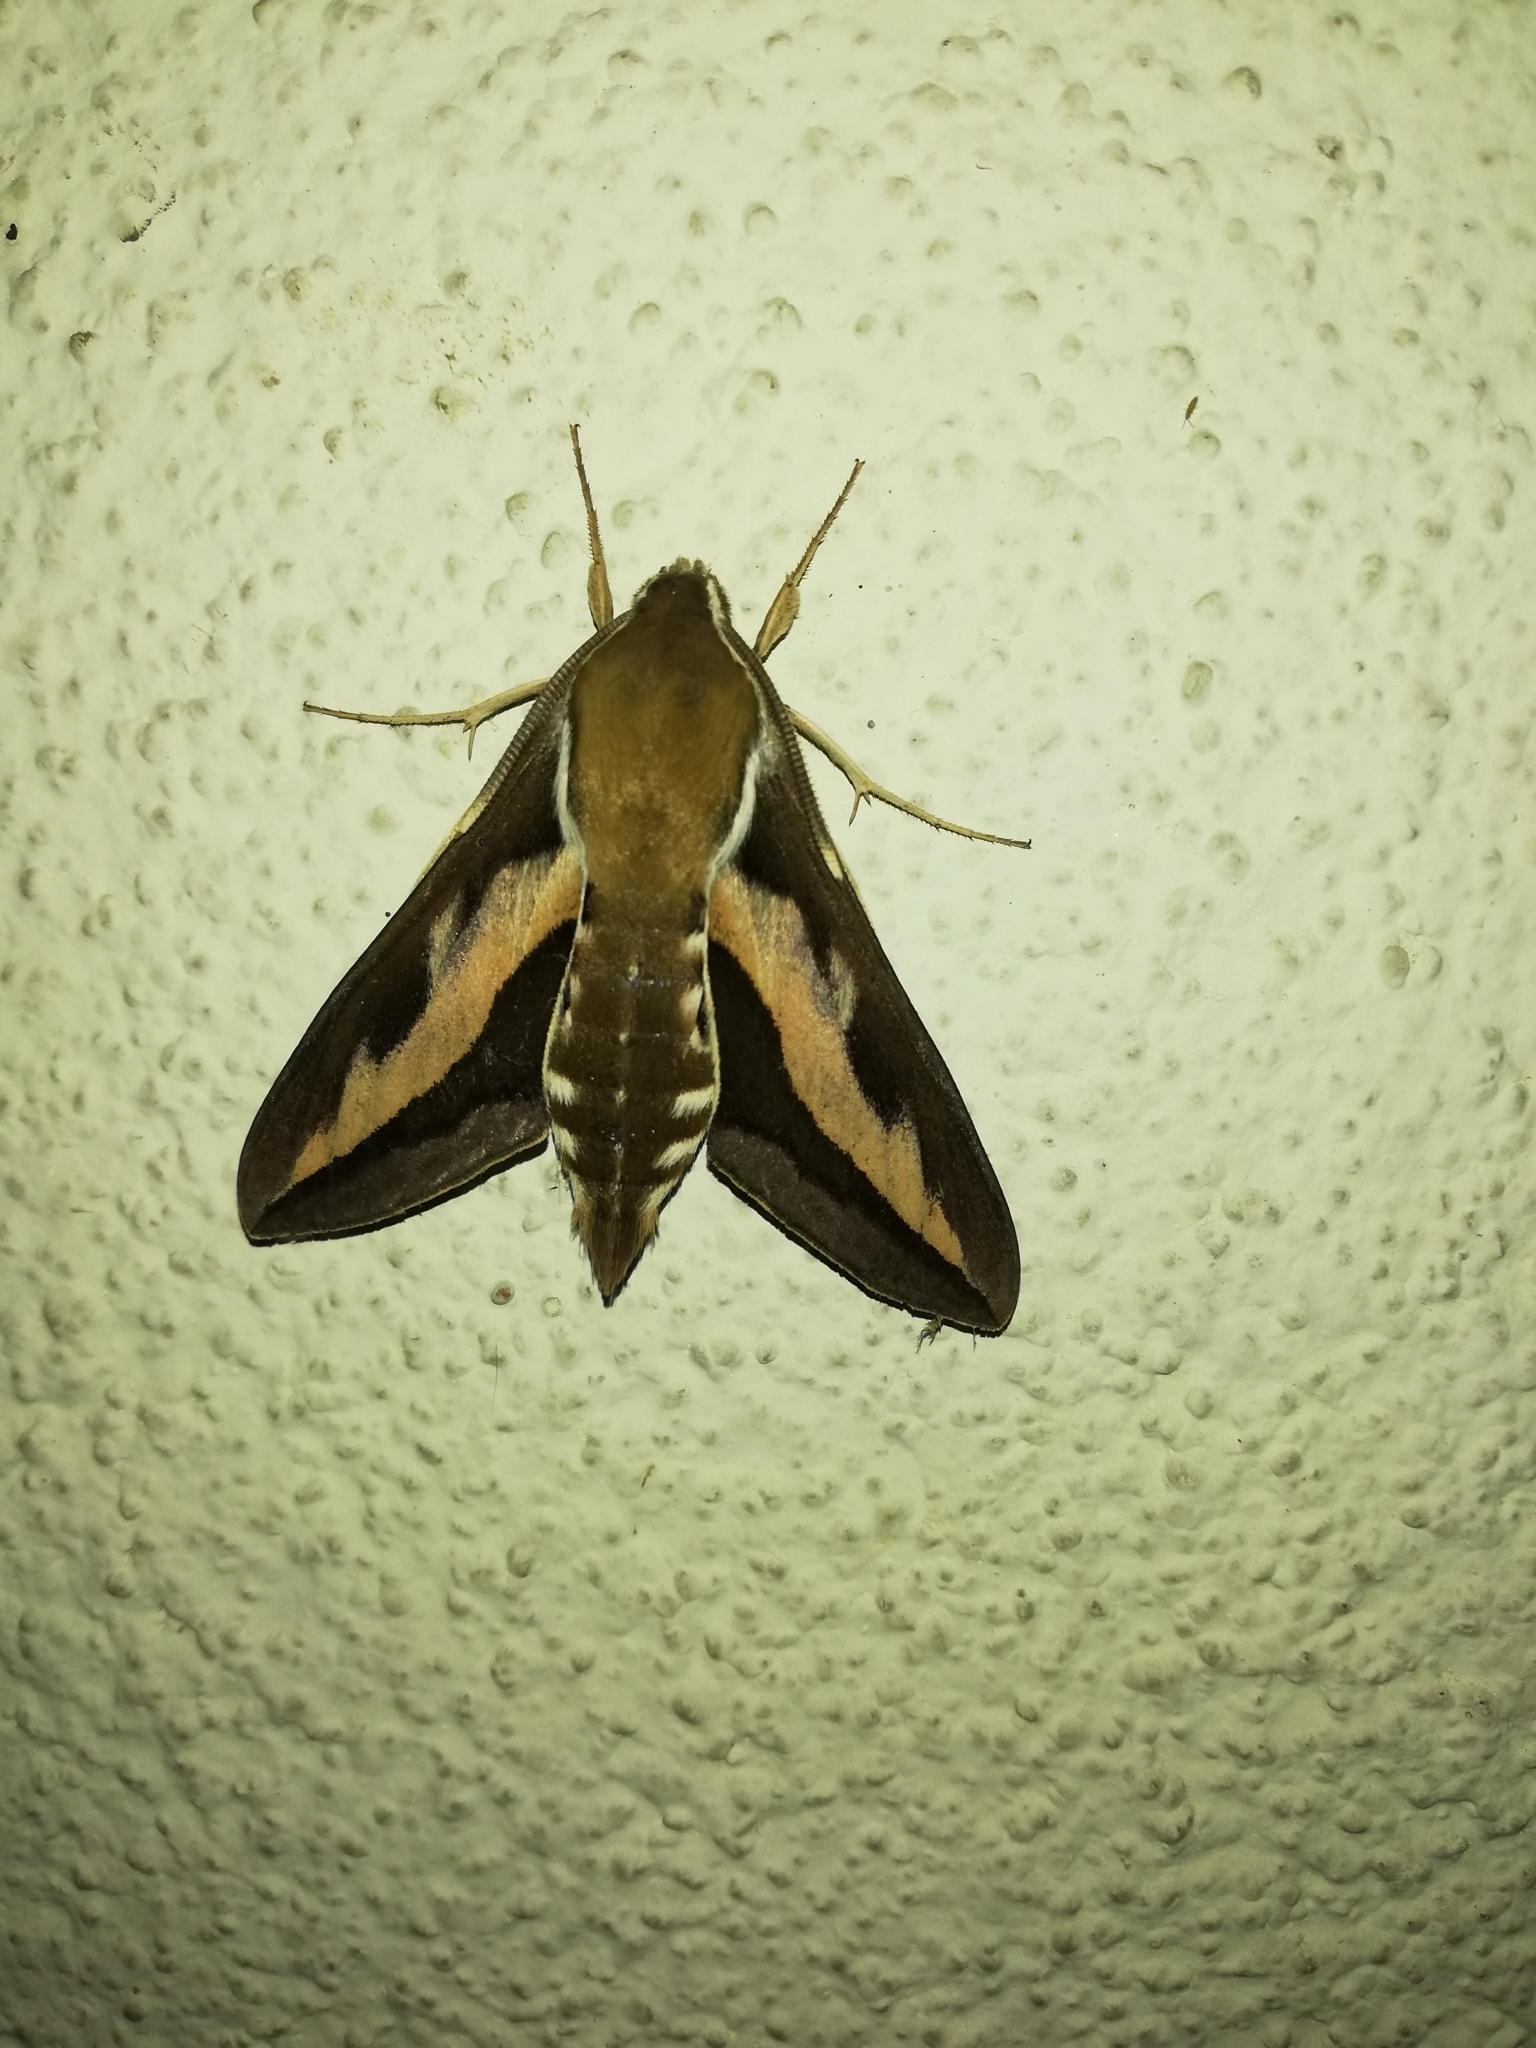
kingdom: Animalia
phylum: Arthropoda
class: Insecta
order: Lepidoptera
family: Sphingidae
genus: Hyles
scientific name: Hyles gallii
